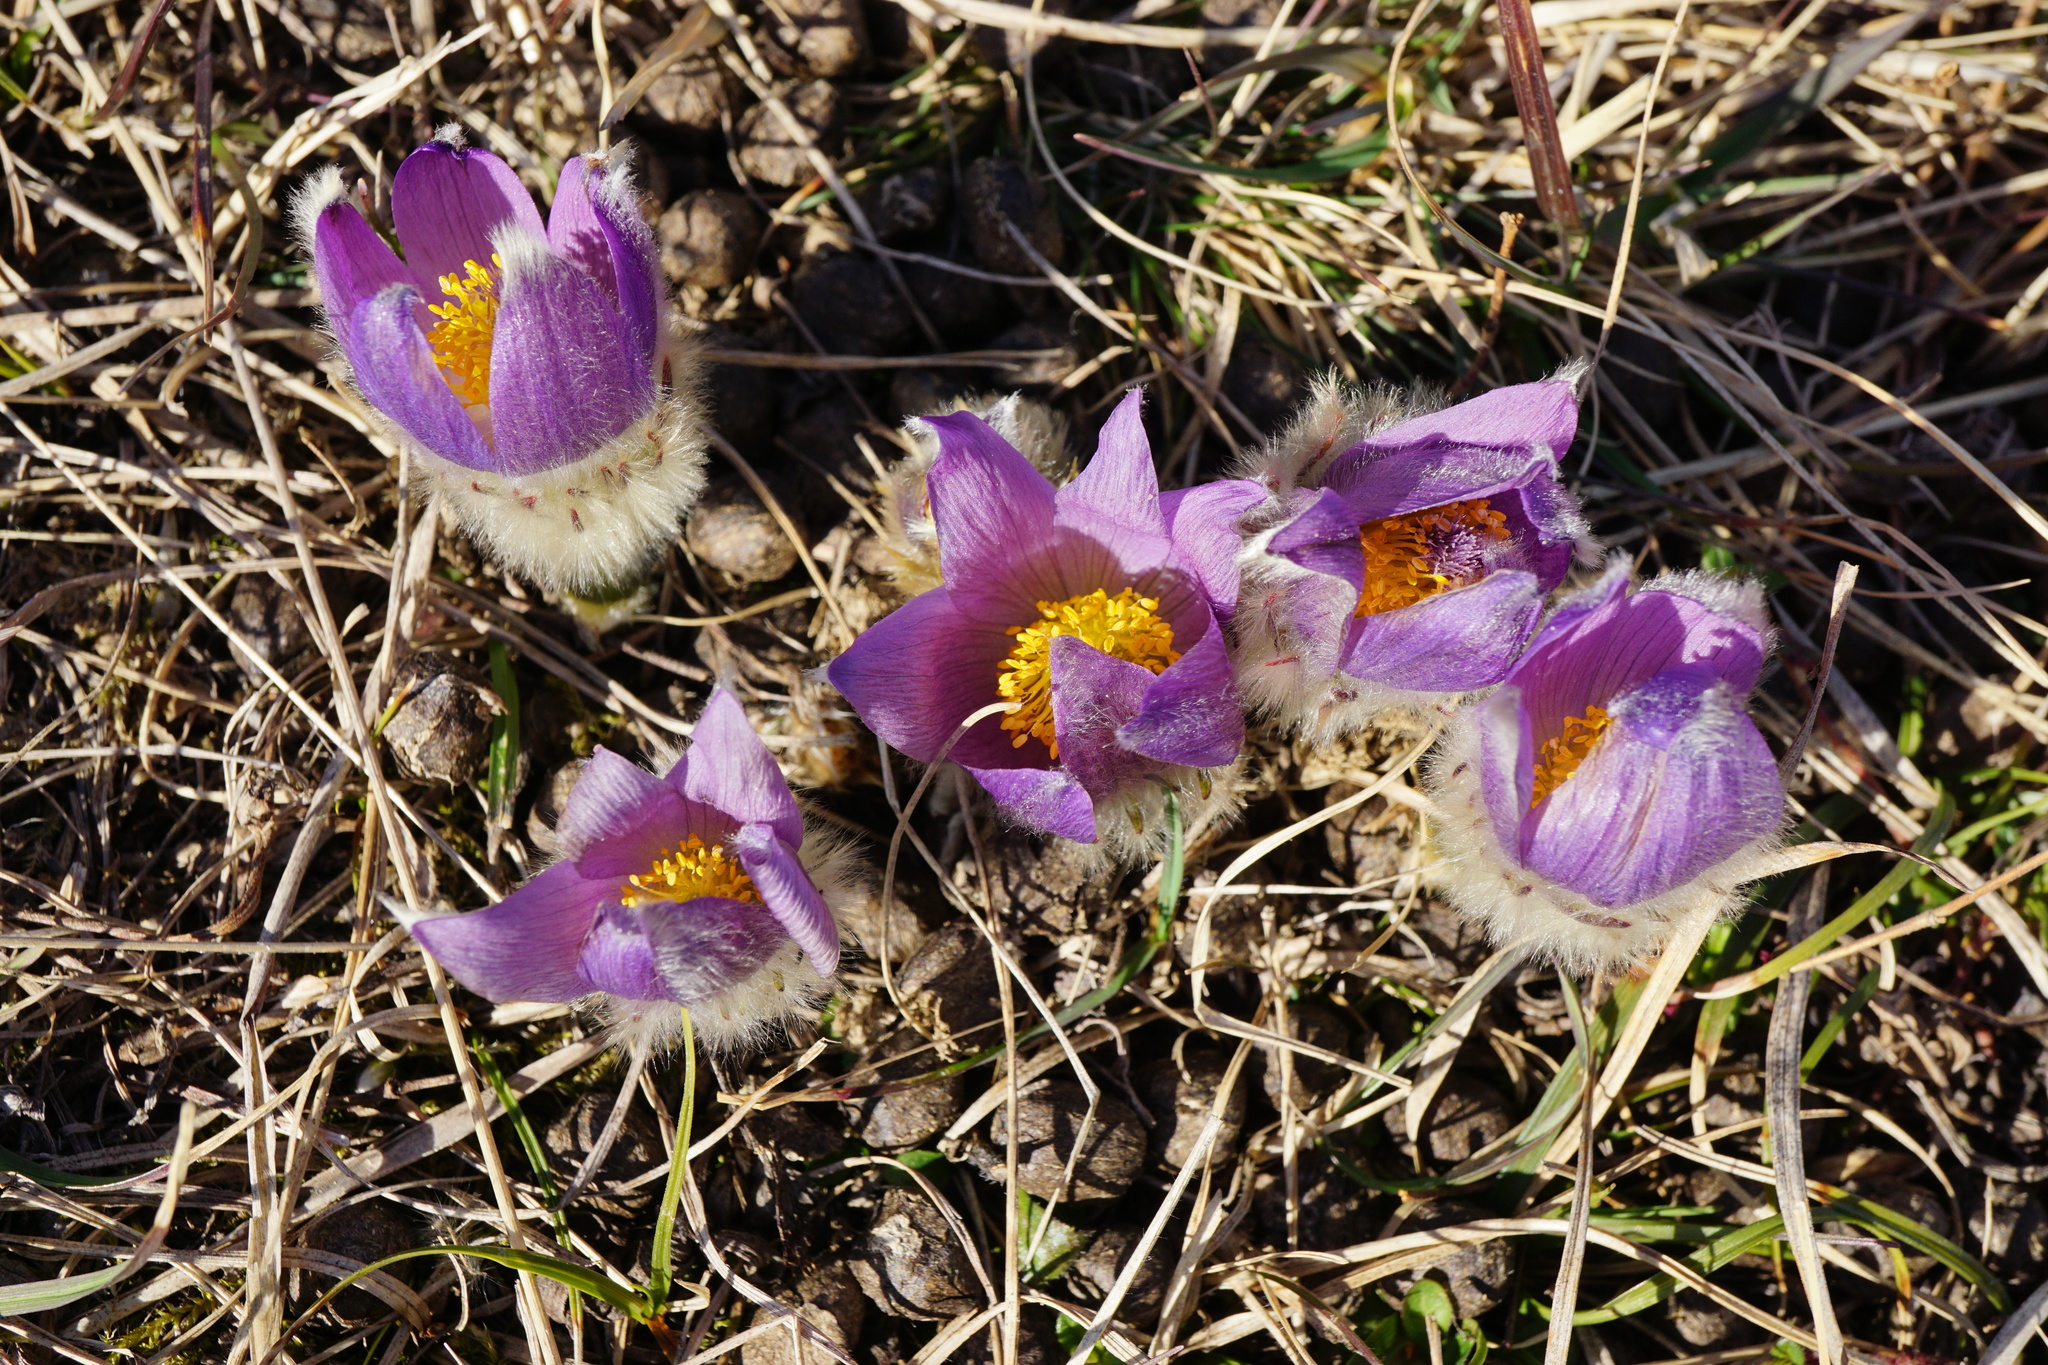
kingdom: Plantae
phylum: Tracheophyta
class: Magnoliopsida
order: Ranunculales
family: Ranunculaceae
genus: Pulsatilla
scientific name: Pulsatilla grandis
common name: Greater pasque flower
